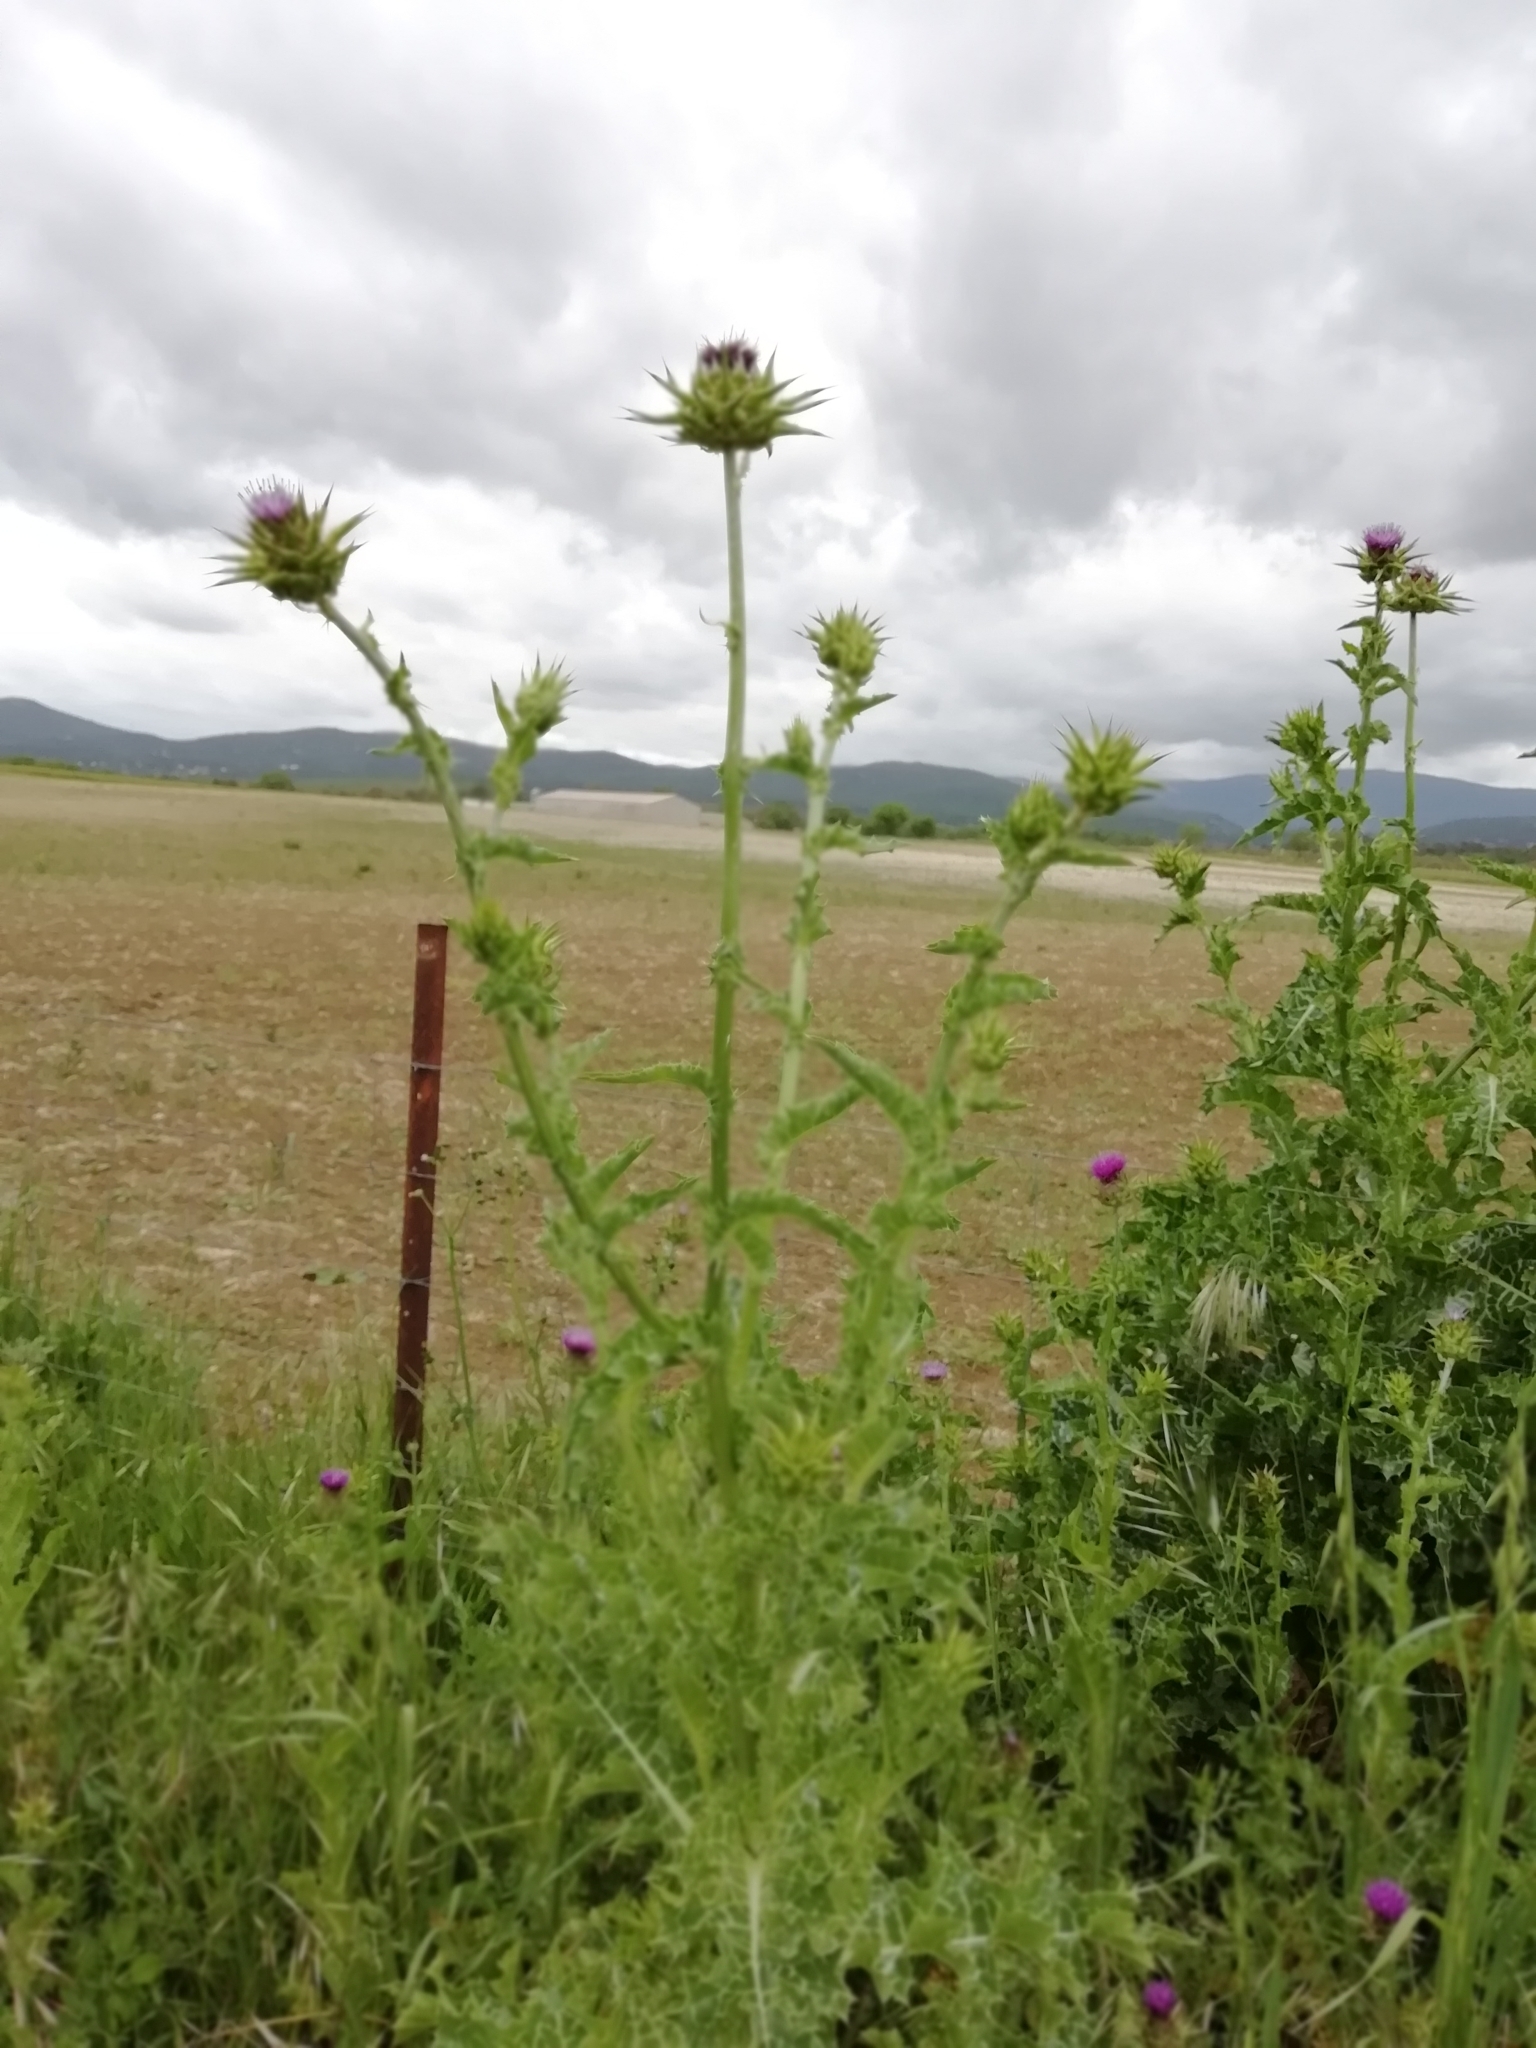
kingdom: Plantae
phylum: Tracheophyta
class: Magnoliopsida
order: Asterales
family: Asteraceae
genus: Silybum
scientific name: Silybum marianum
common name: Milk thistle
